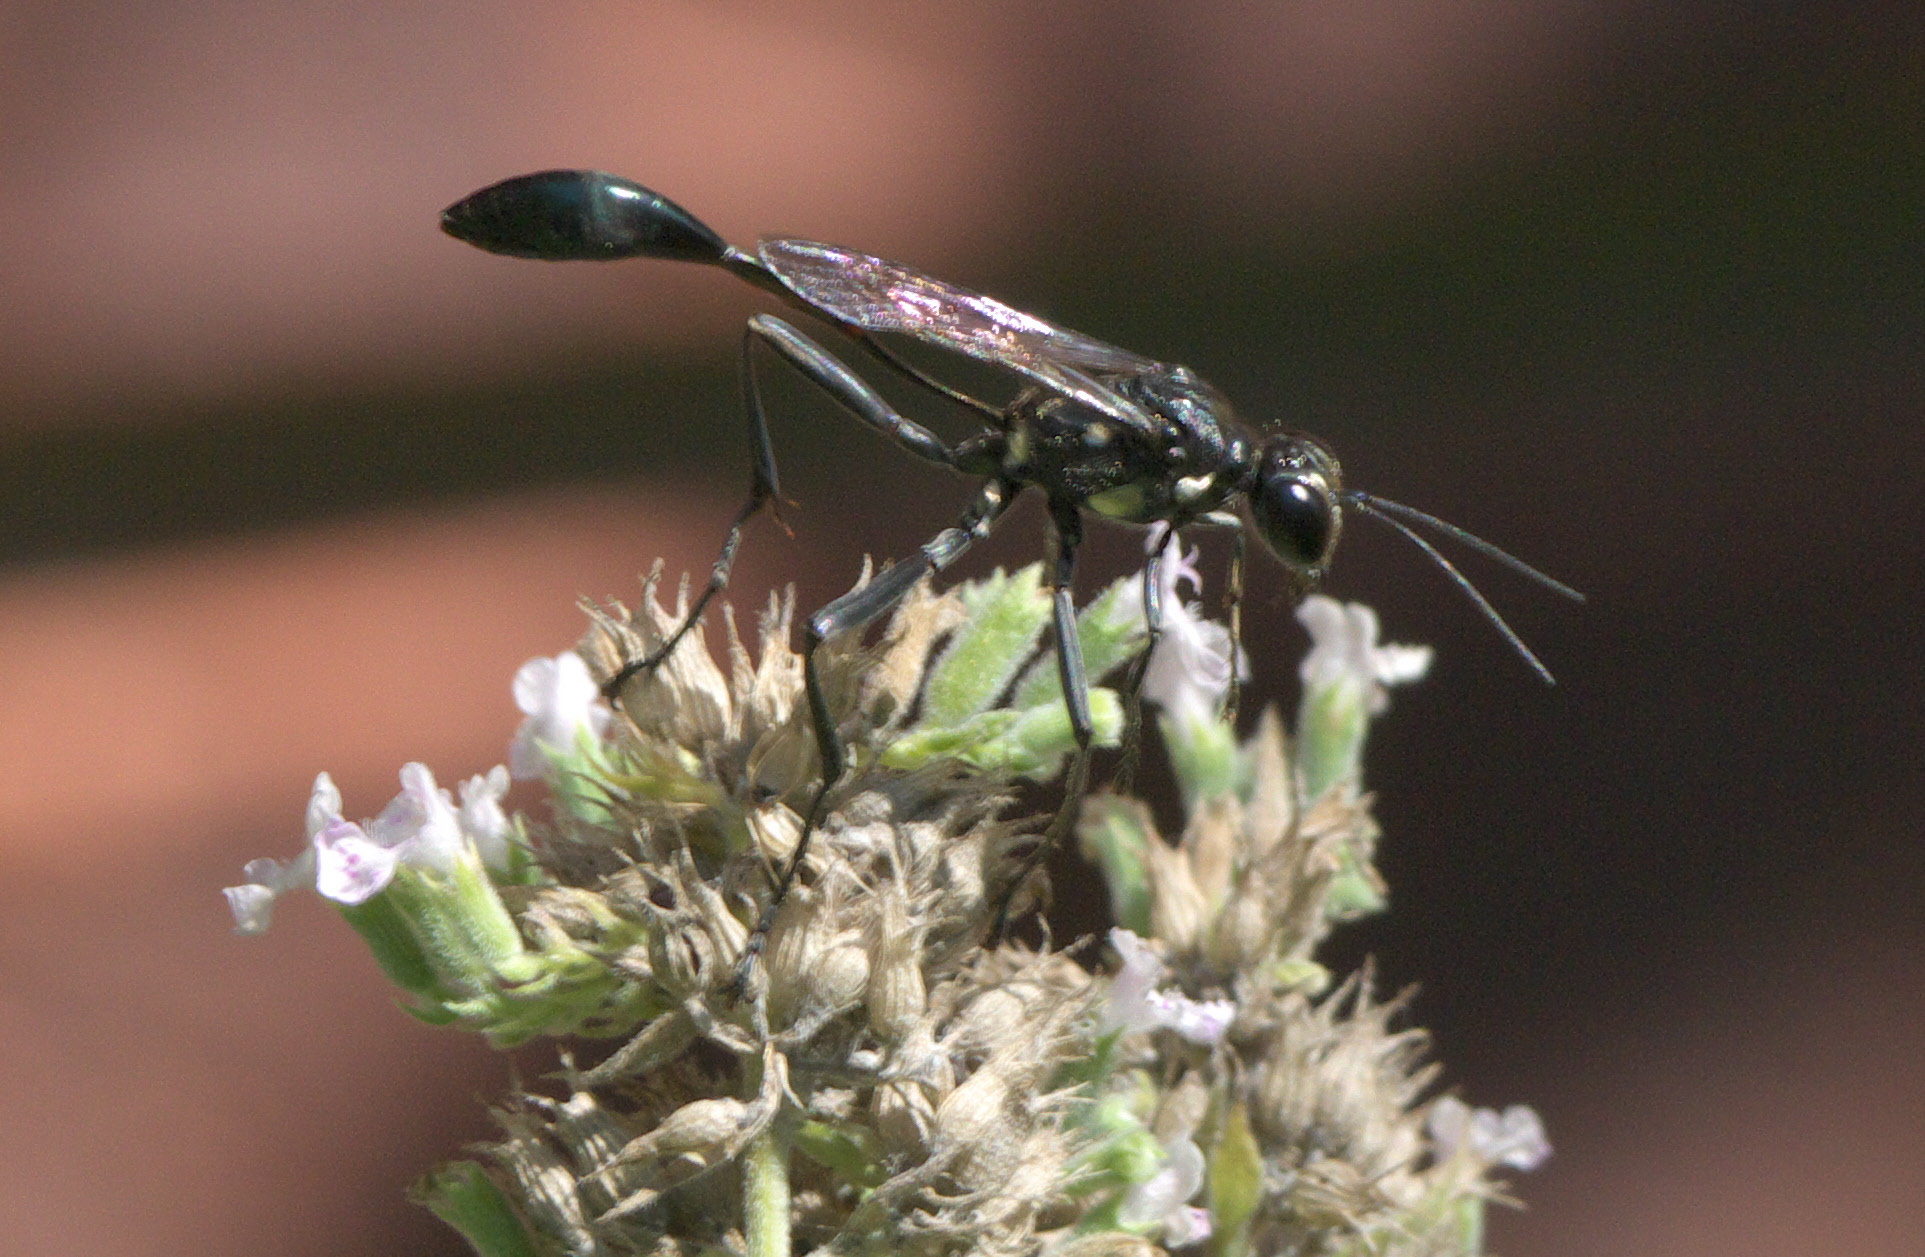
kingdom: Animalia
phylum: Arthropoda
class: Insecta
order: Hymenoptera
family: Sphecidae
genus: Eremnophila
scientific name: Eremnophila aureonotata
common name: Gold-marked thread-waisted wasp
